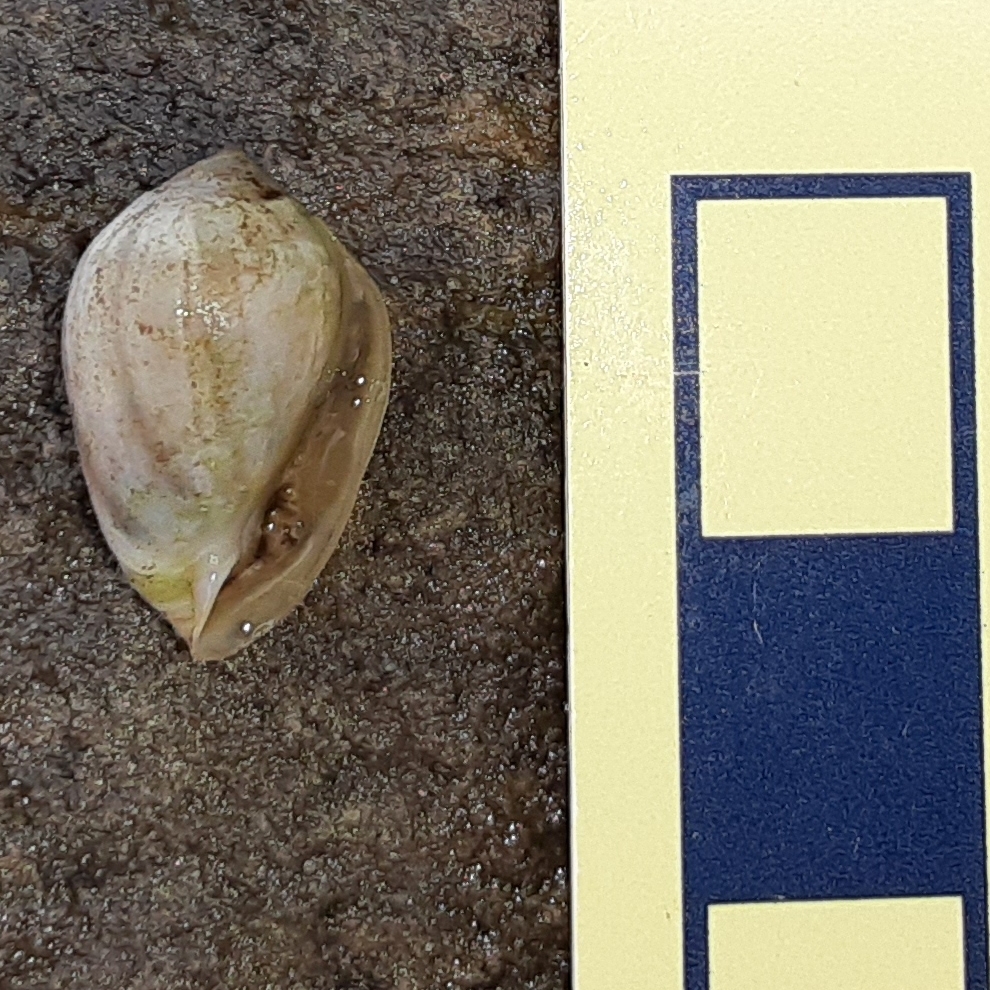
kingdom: Animalia
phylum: Mollusca
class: Gastropoda
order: Ellobiida
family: Ellobiidae
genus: Melampus
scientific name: Melampus coffea
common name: Coffee bean snail
